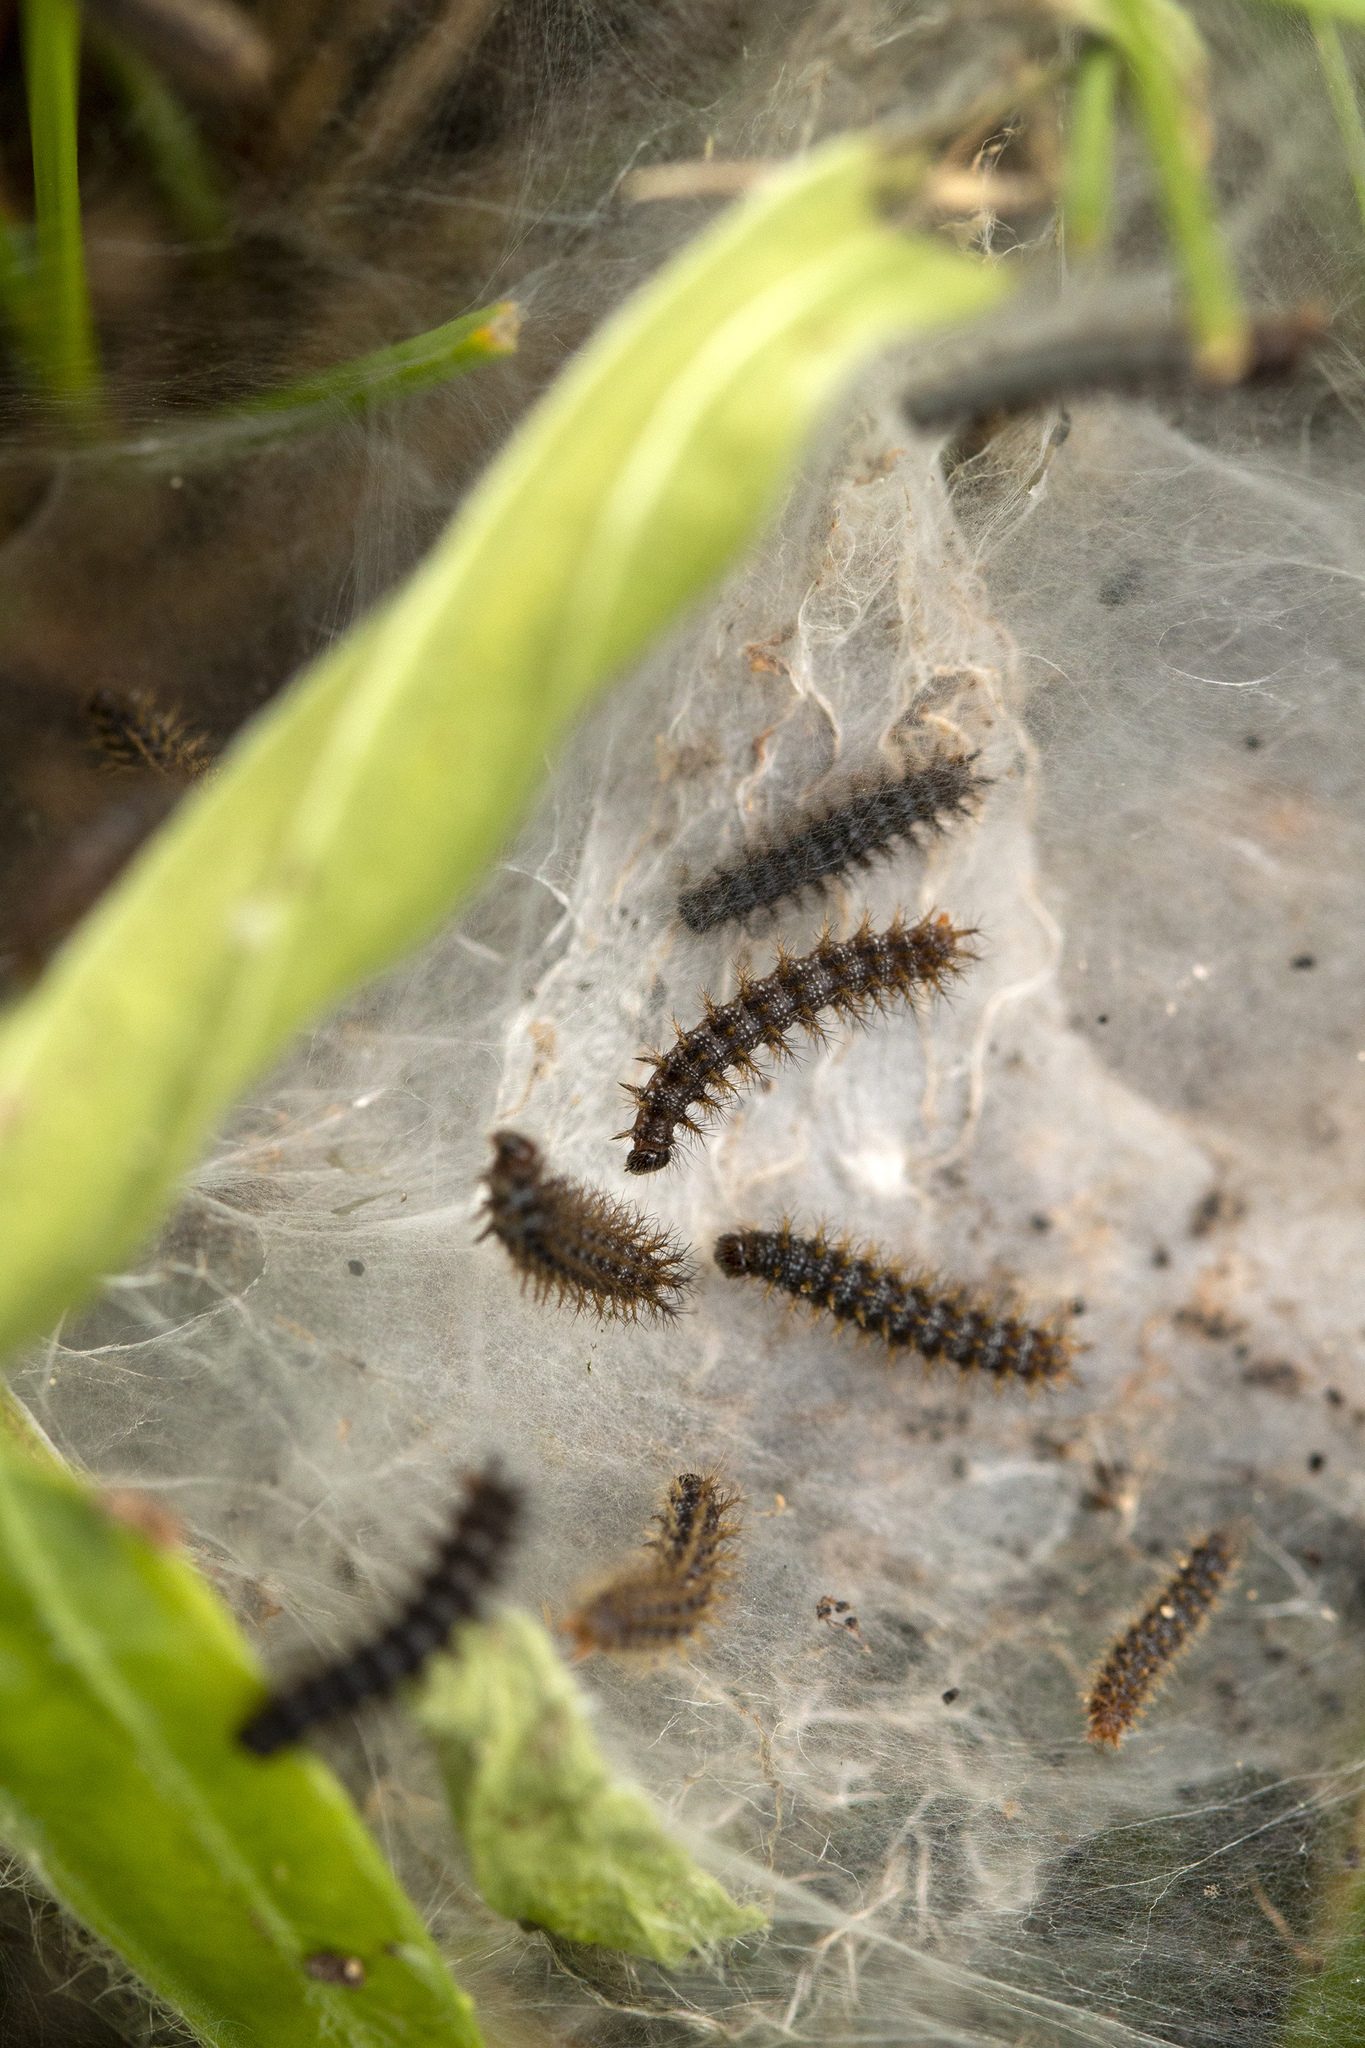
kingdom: Animalia
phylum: Arthropoda
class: Insecta
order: Lepidoptera
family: Nymphalidae
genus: Melitaea
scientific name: Melitaea cinxia
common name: Glanville fritillary
